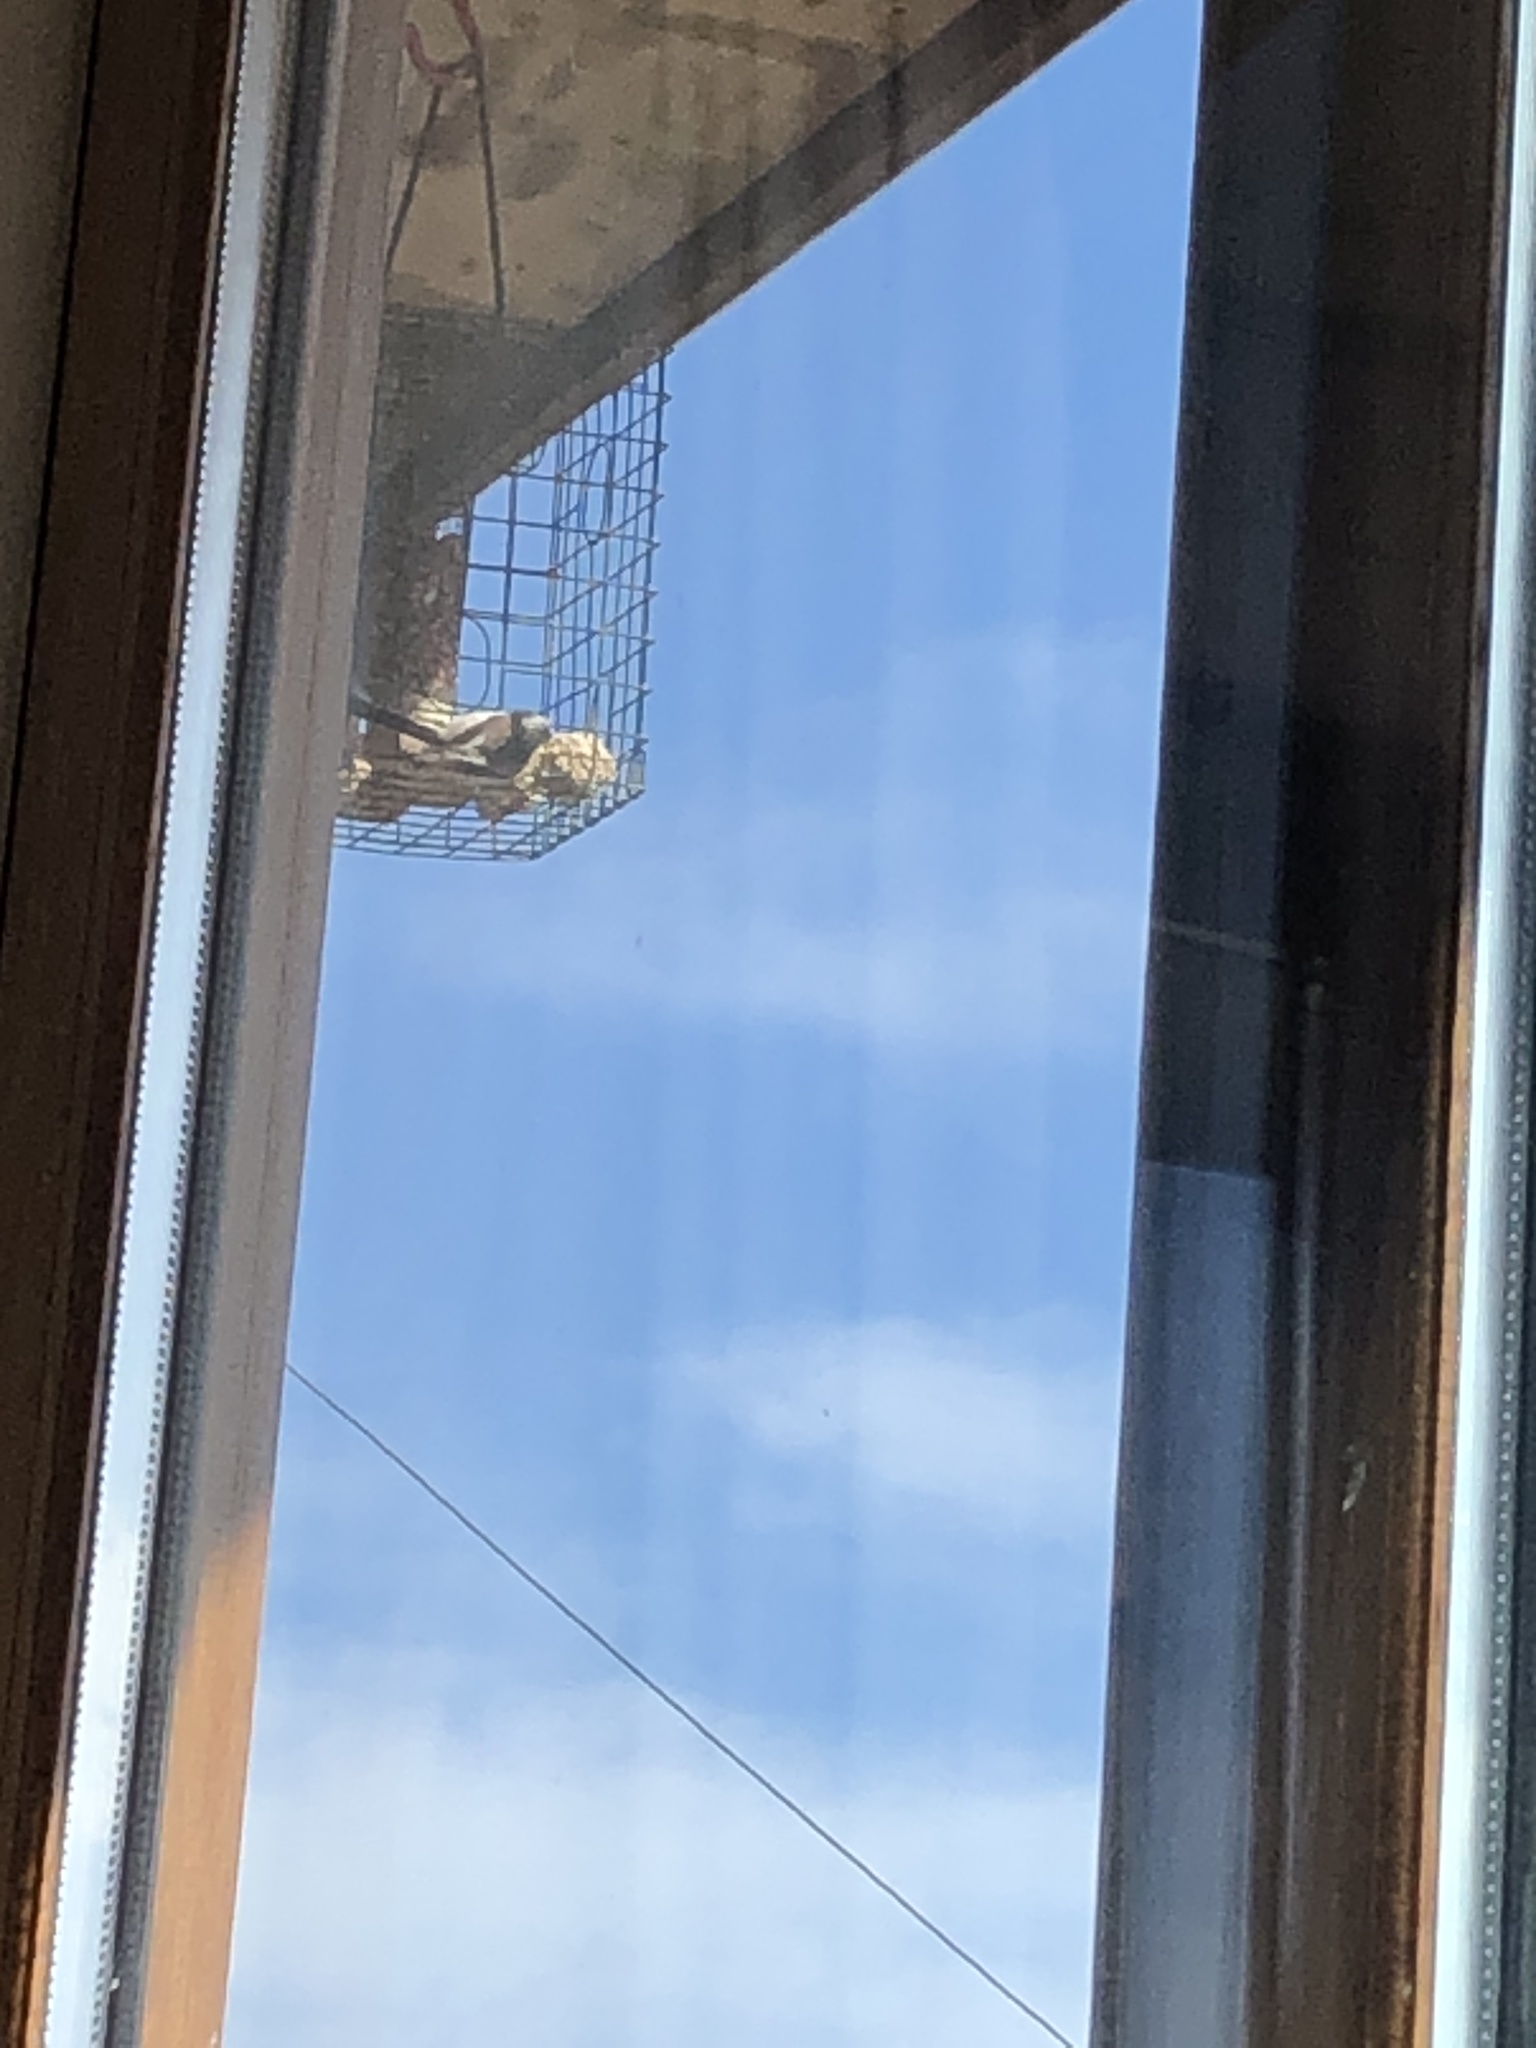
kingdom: Animalia
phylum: Chordata
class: Aves
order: Passeriformes
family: Aegithalidae
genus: Aegithalos
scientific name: Aegithalos caudatus
